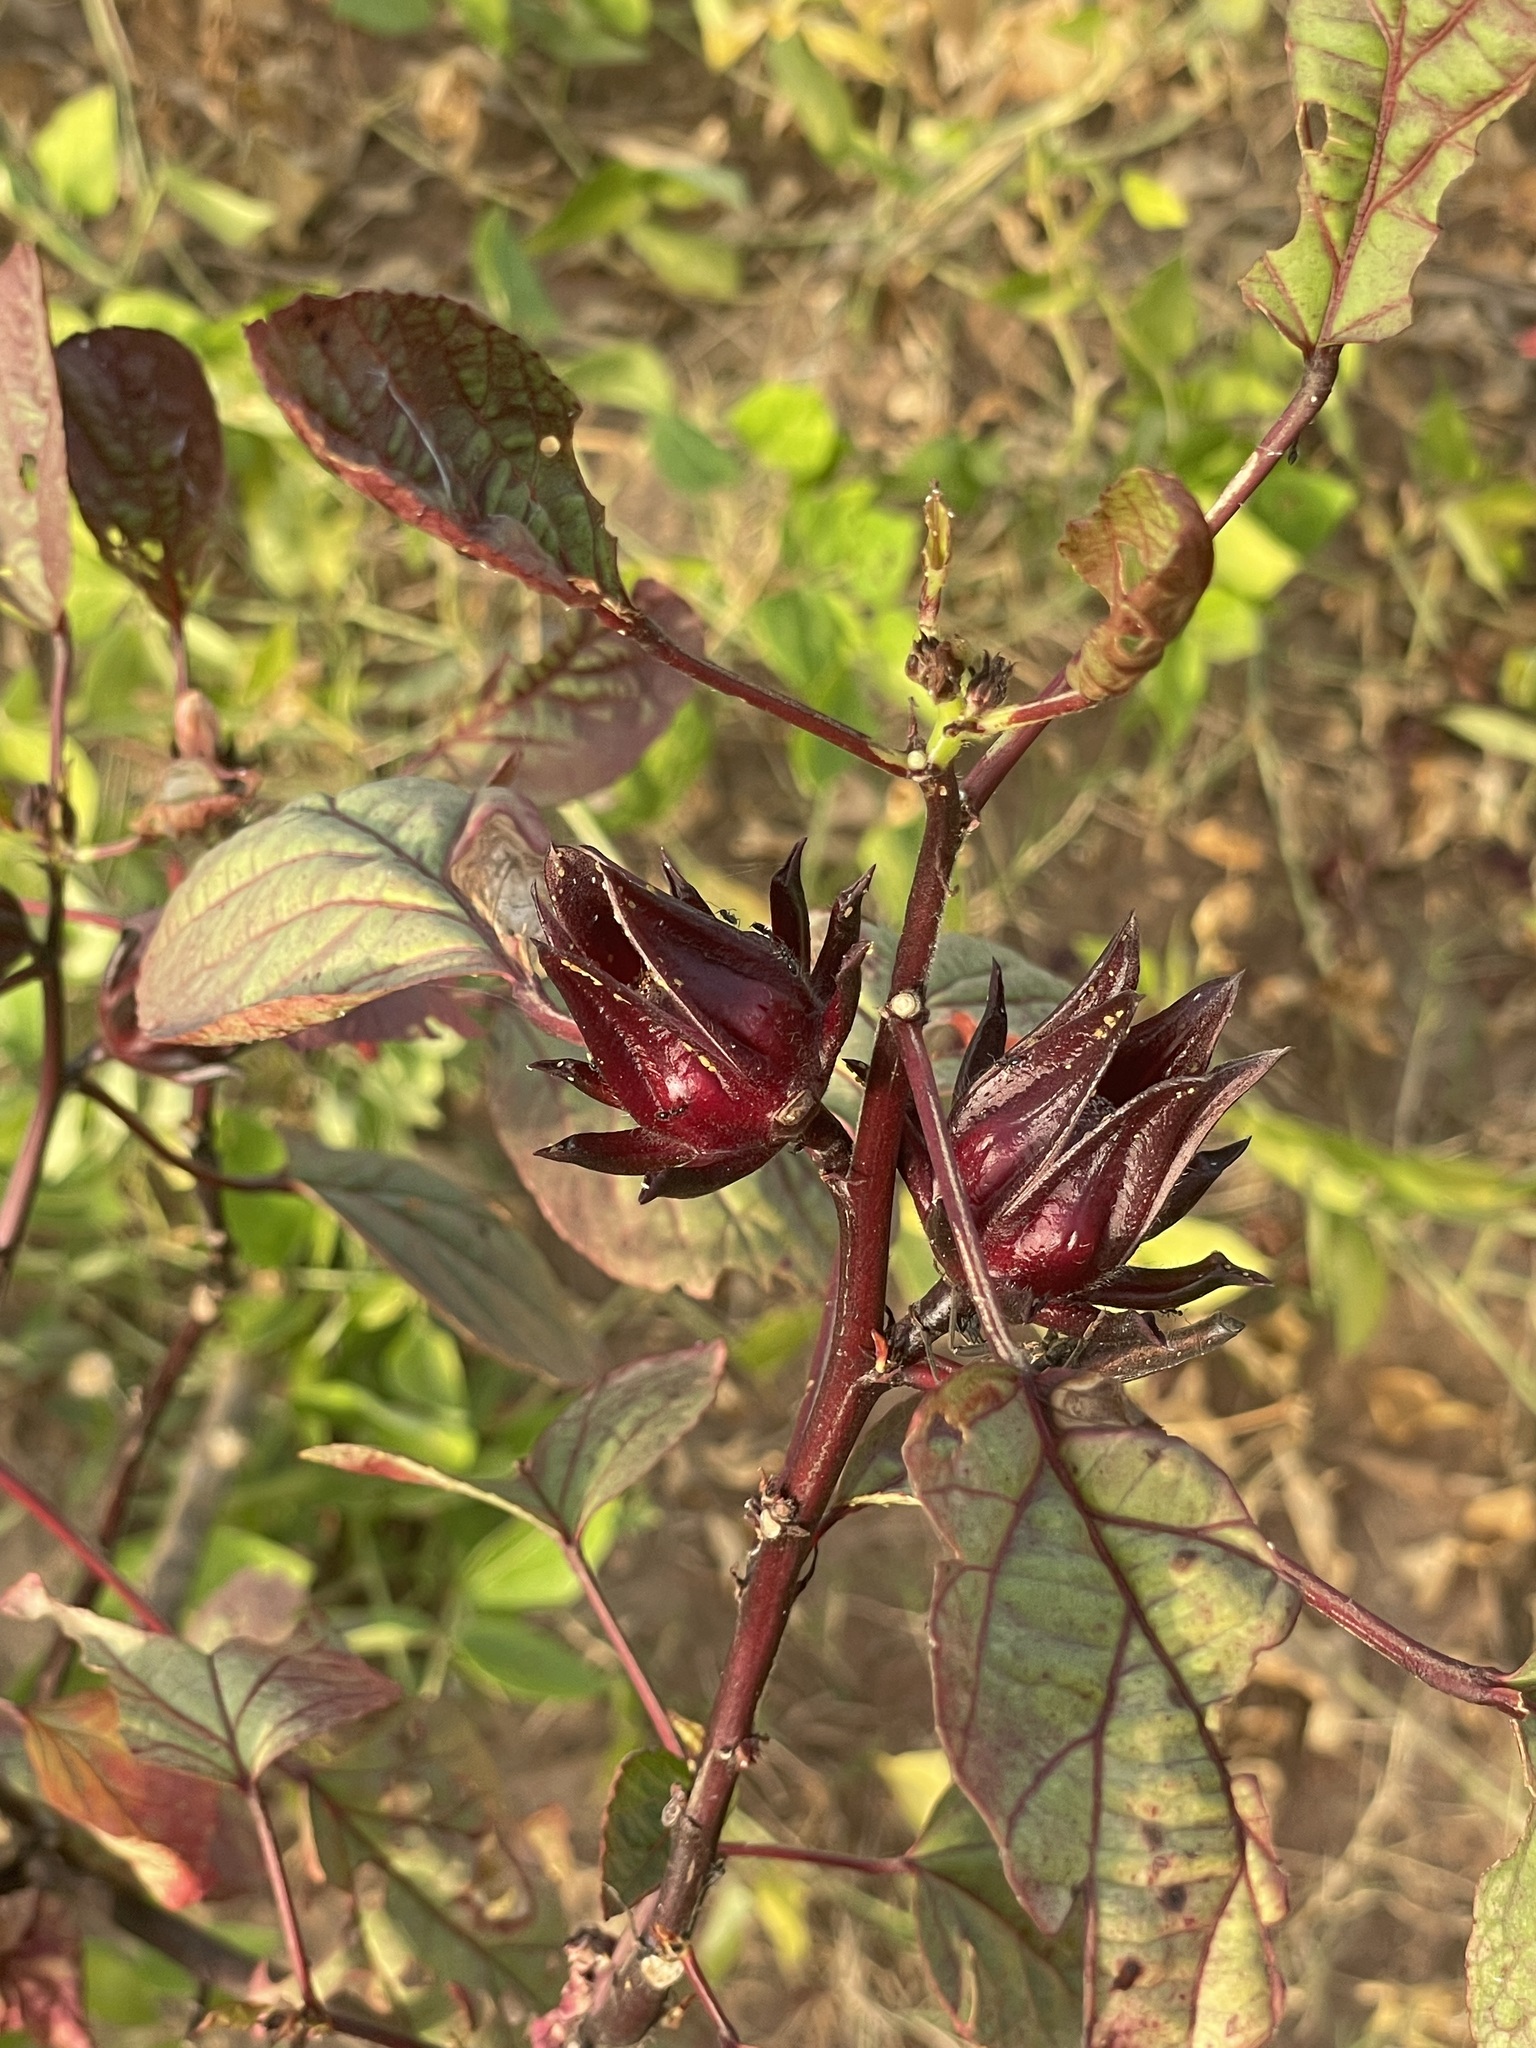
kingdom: Plantae
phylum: Tracheophyta
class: Magnoliopsida
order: Malvales
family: Malvaceae
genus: Hibiscus
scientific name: Hibiscus sabdariffa
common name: Roselle
